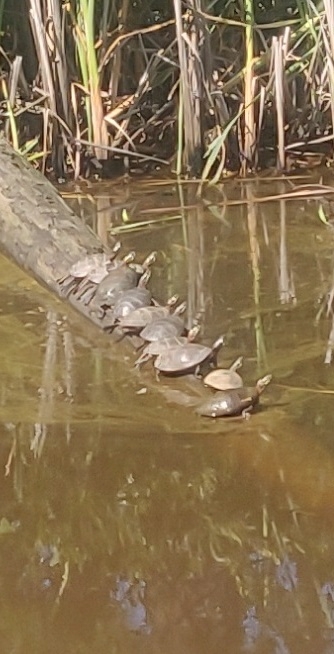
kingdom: Animalia
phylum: Chordata
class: Testudines
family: Emydidae
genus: Chrysemys
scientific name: Chrysemys picta
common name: Painted turtle
